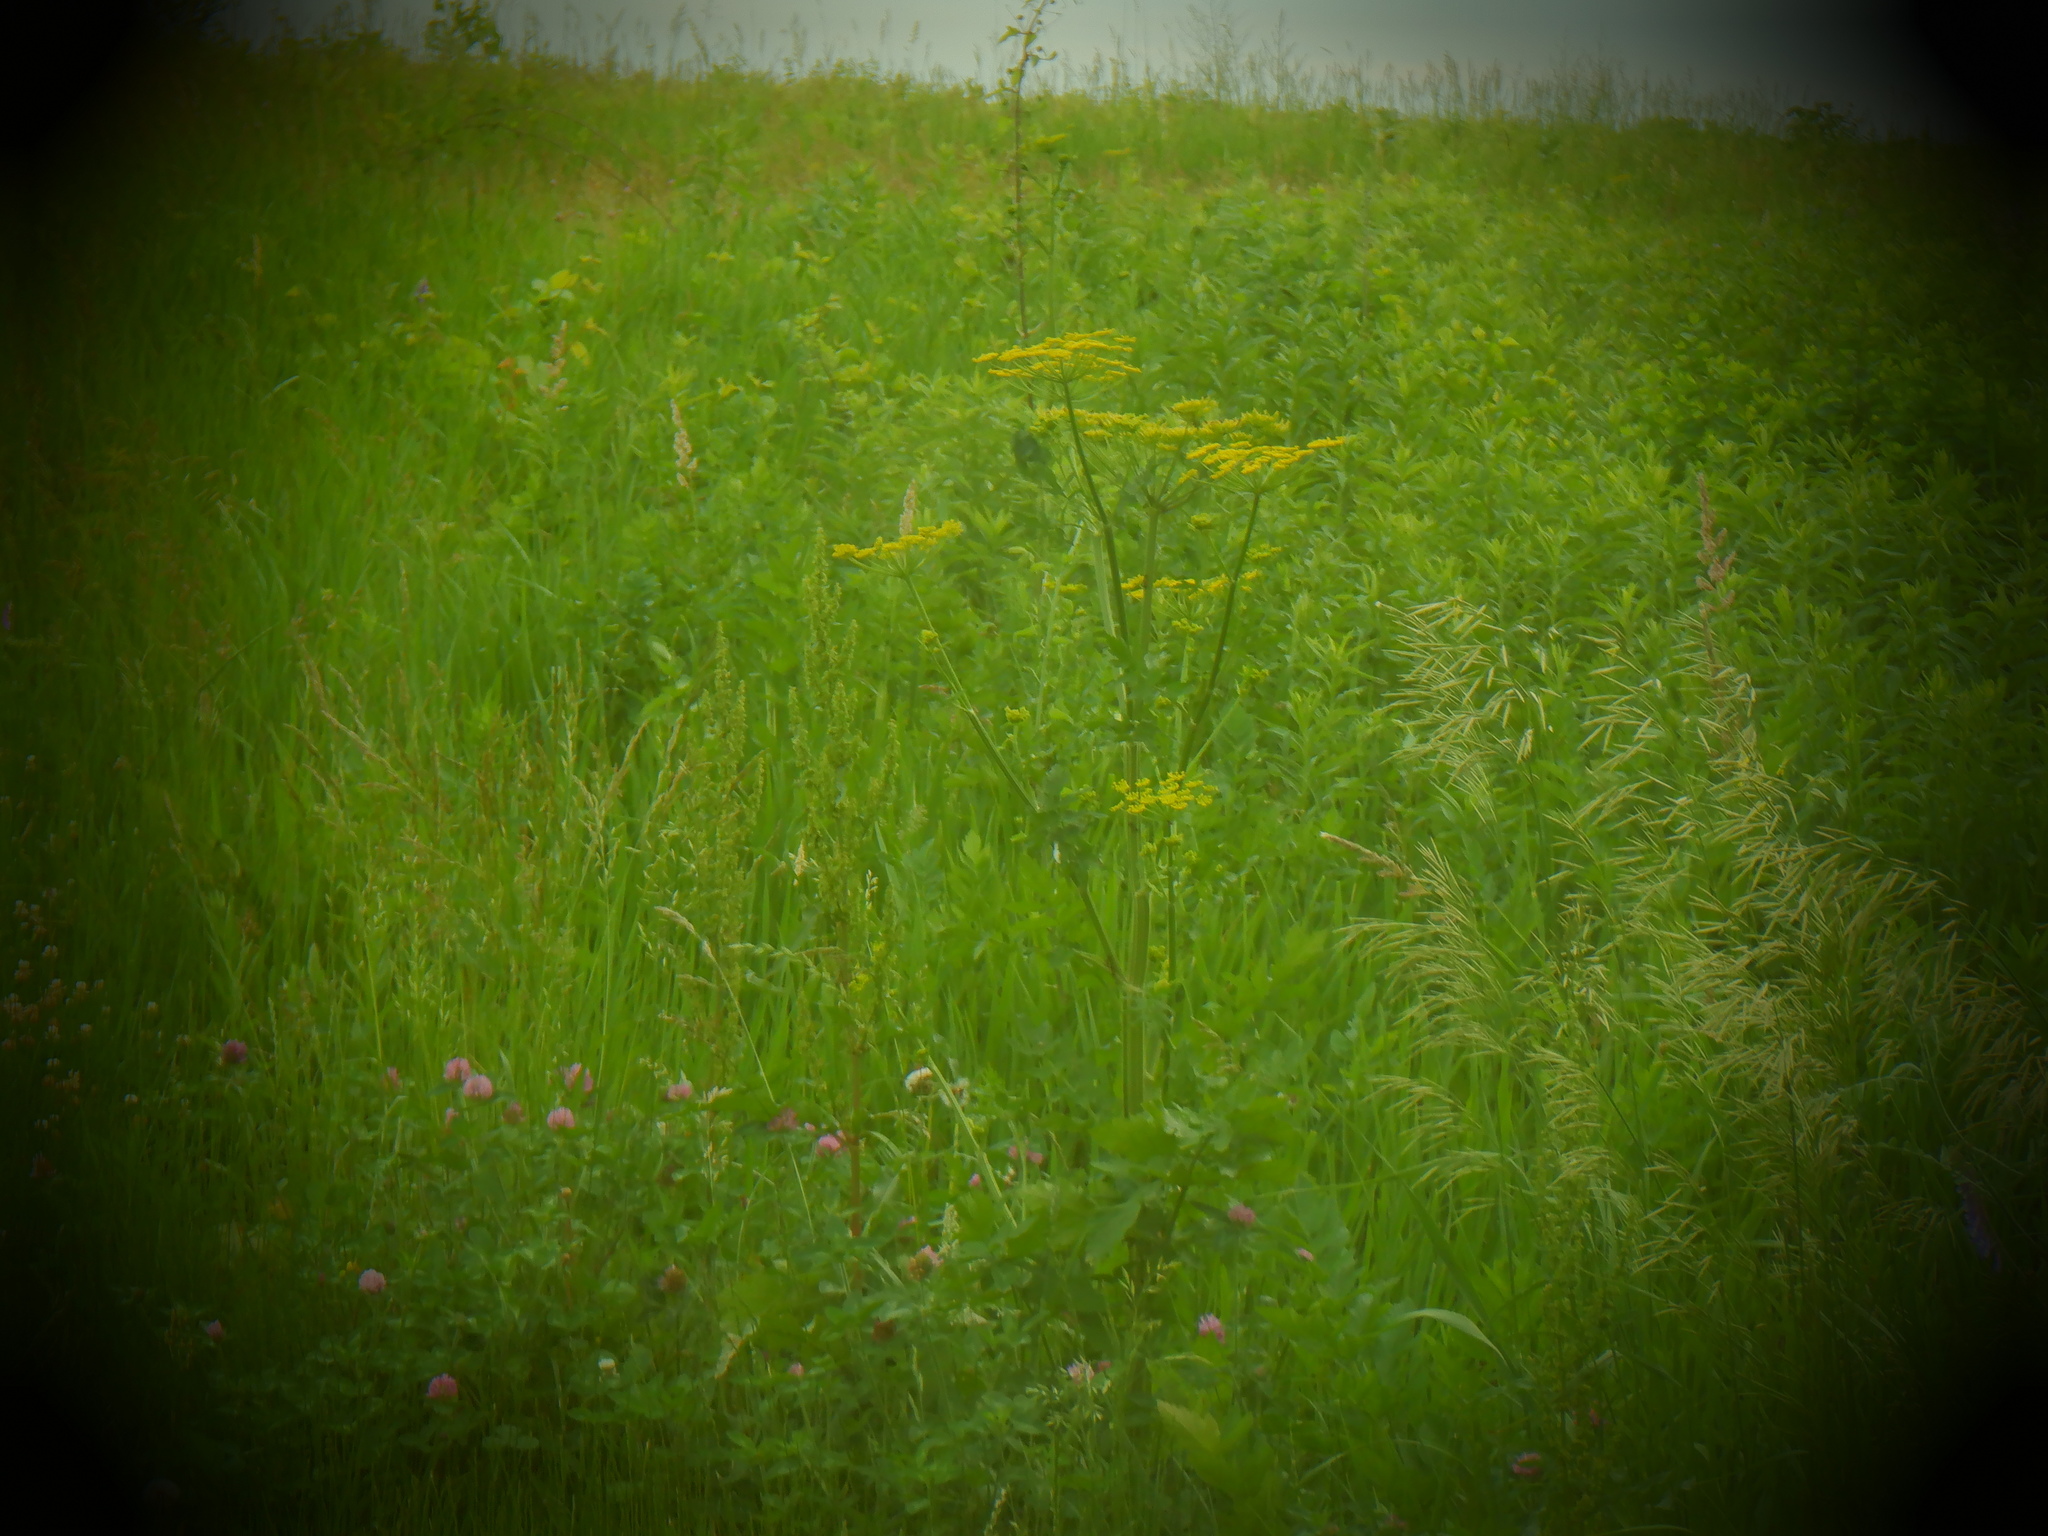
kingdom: Plantae
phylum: Tracheophyta
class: Magnoliopsida
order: Apiales
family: Apiaceae
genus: Pastinaca
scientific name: Pastinaca sativa
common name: Wild parsnip
